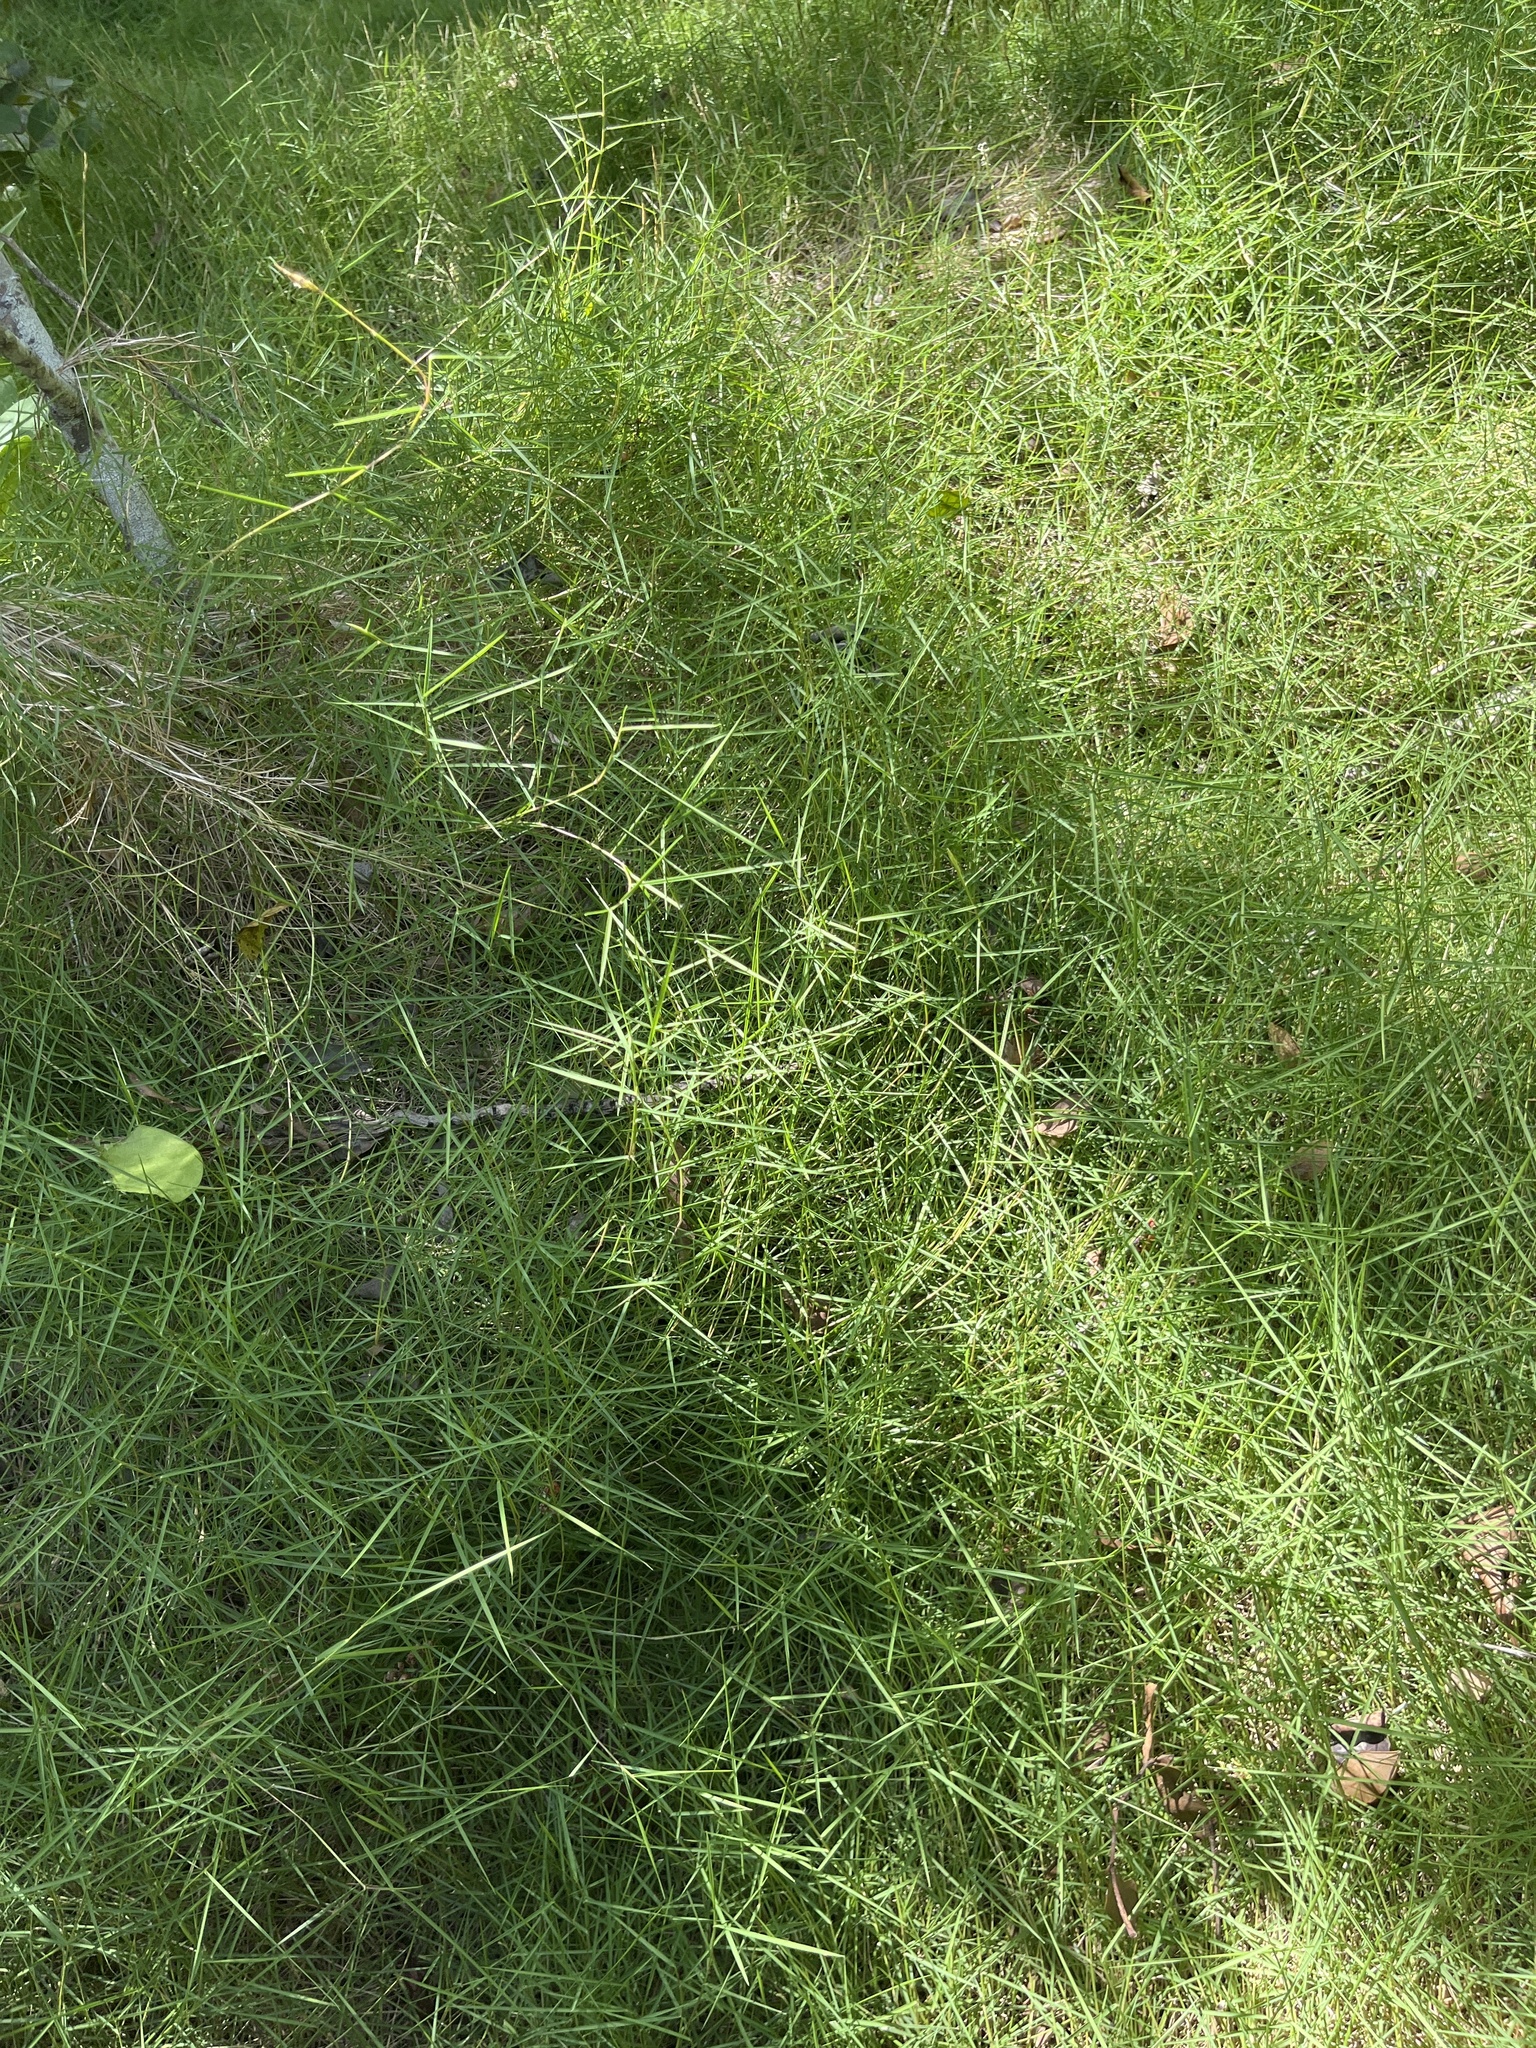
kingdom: Plantae
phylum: Tracheophyta
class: Liliopsida
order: Poales
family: Poaceae
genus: Zoysia
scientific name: Zoysia matrella
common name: Manila grass
